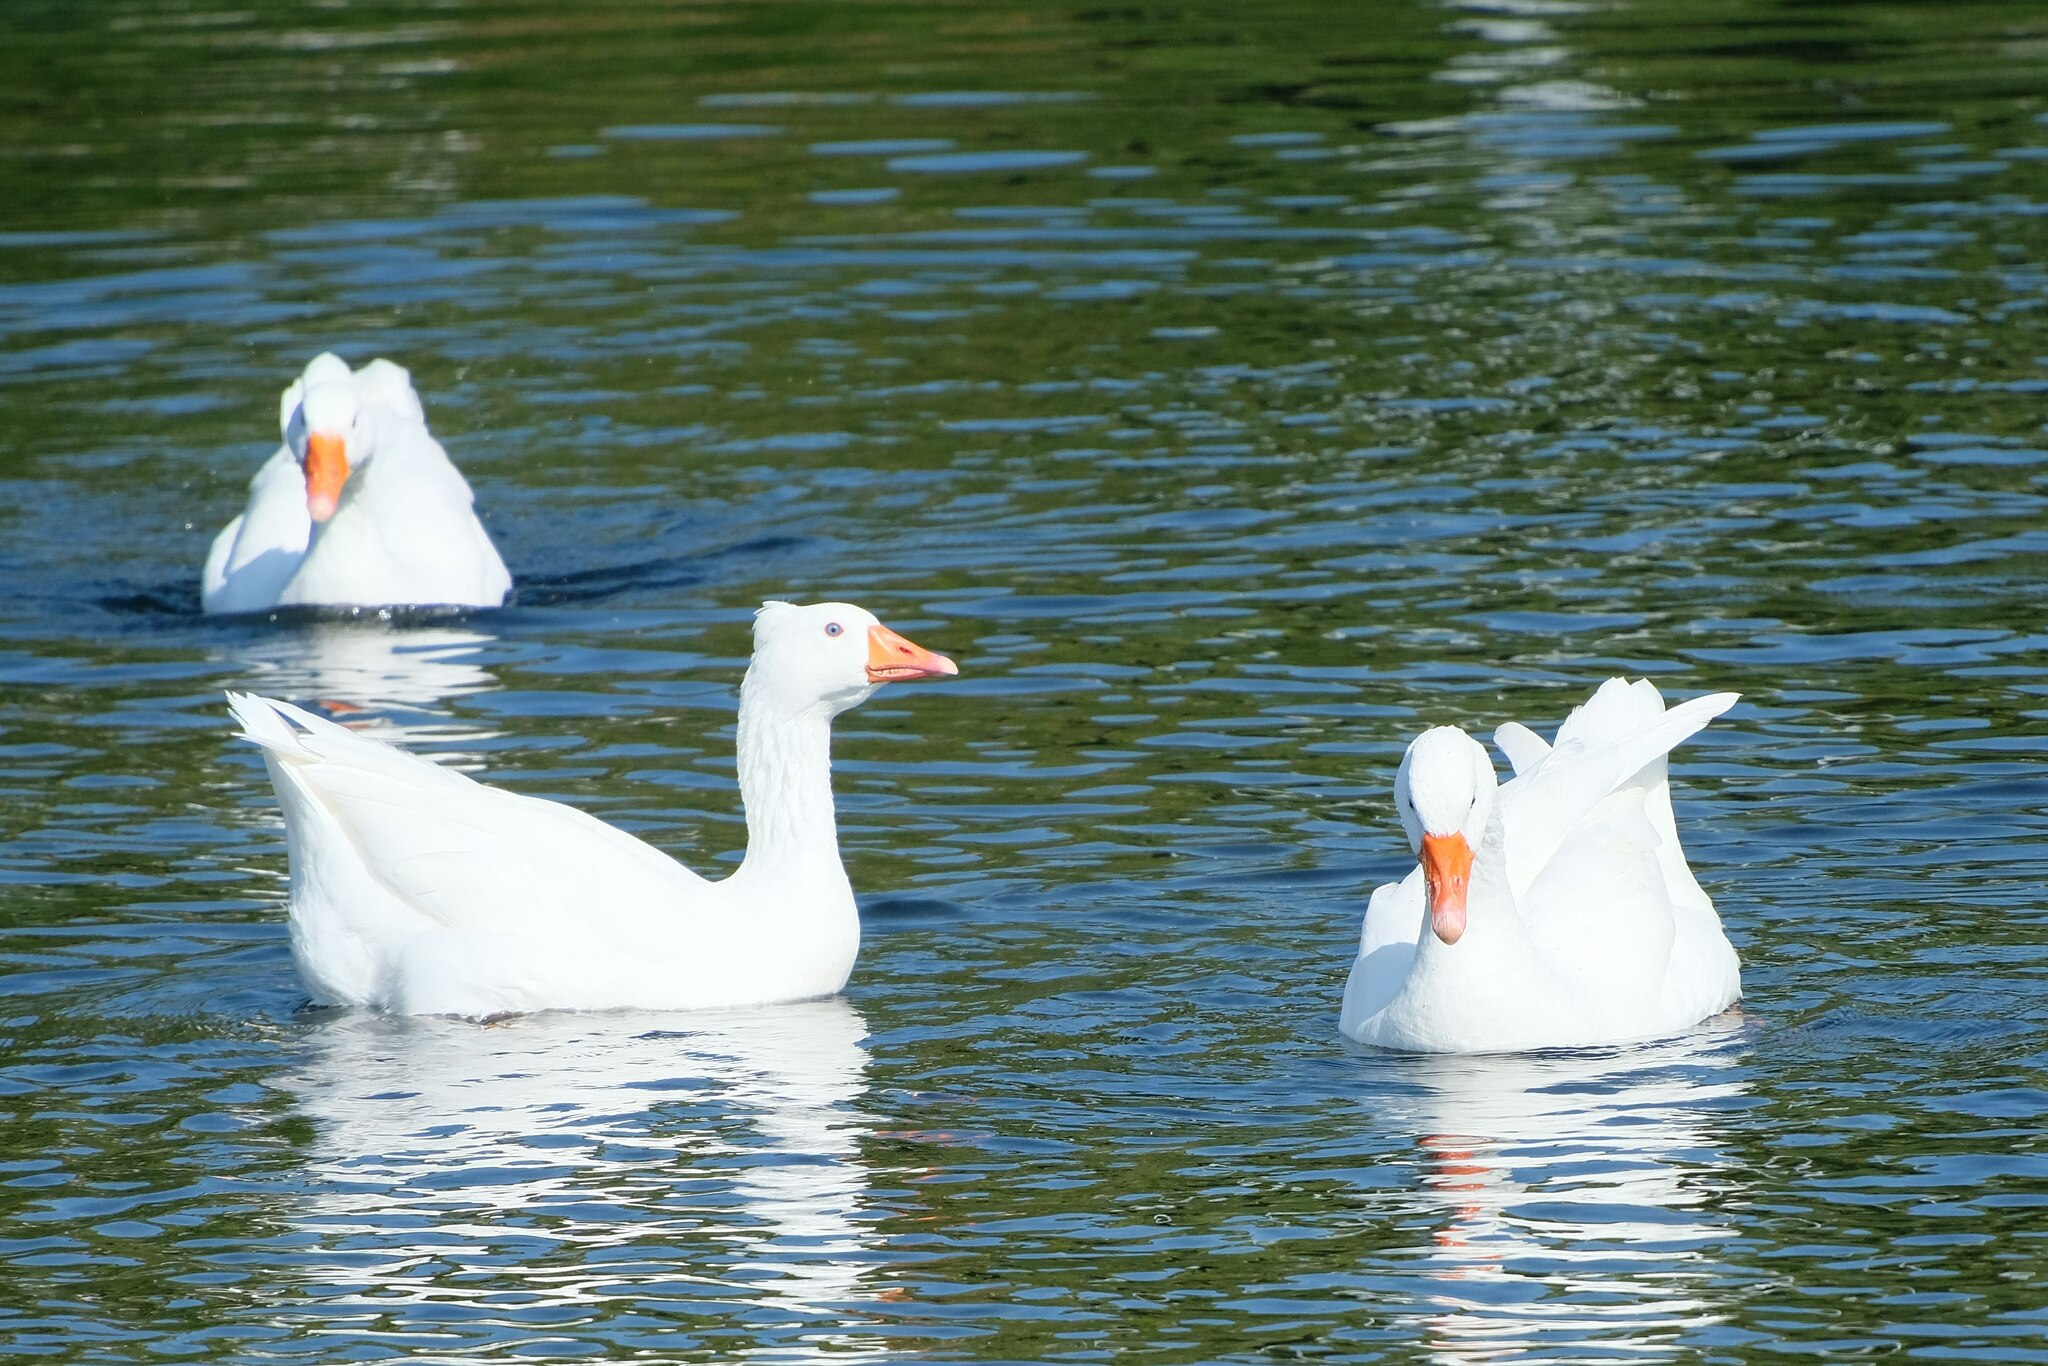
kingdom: Animalia
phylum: Chordata
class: Aves
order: Anseriformes
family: Anatidae
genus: Anser
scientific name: Anser anser
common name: Greylag goose
